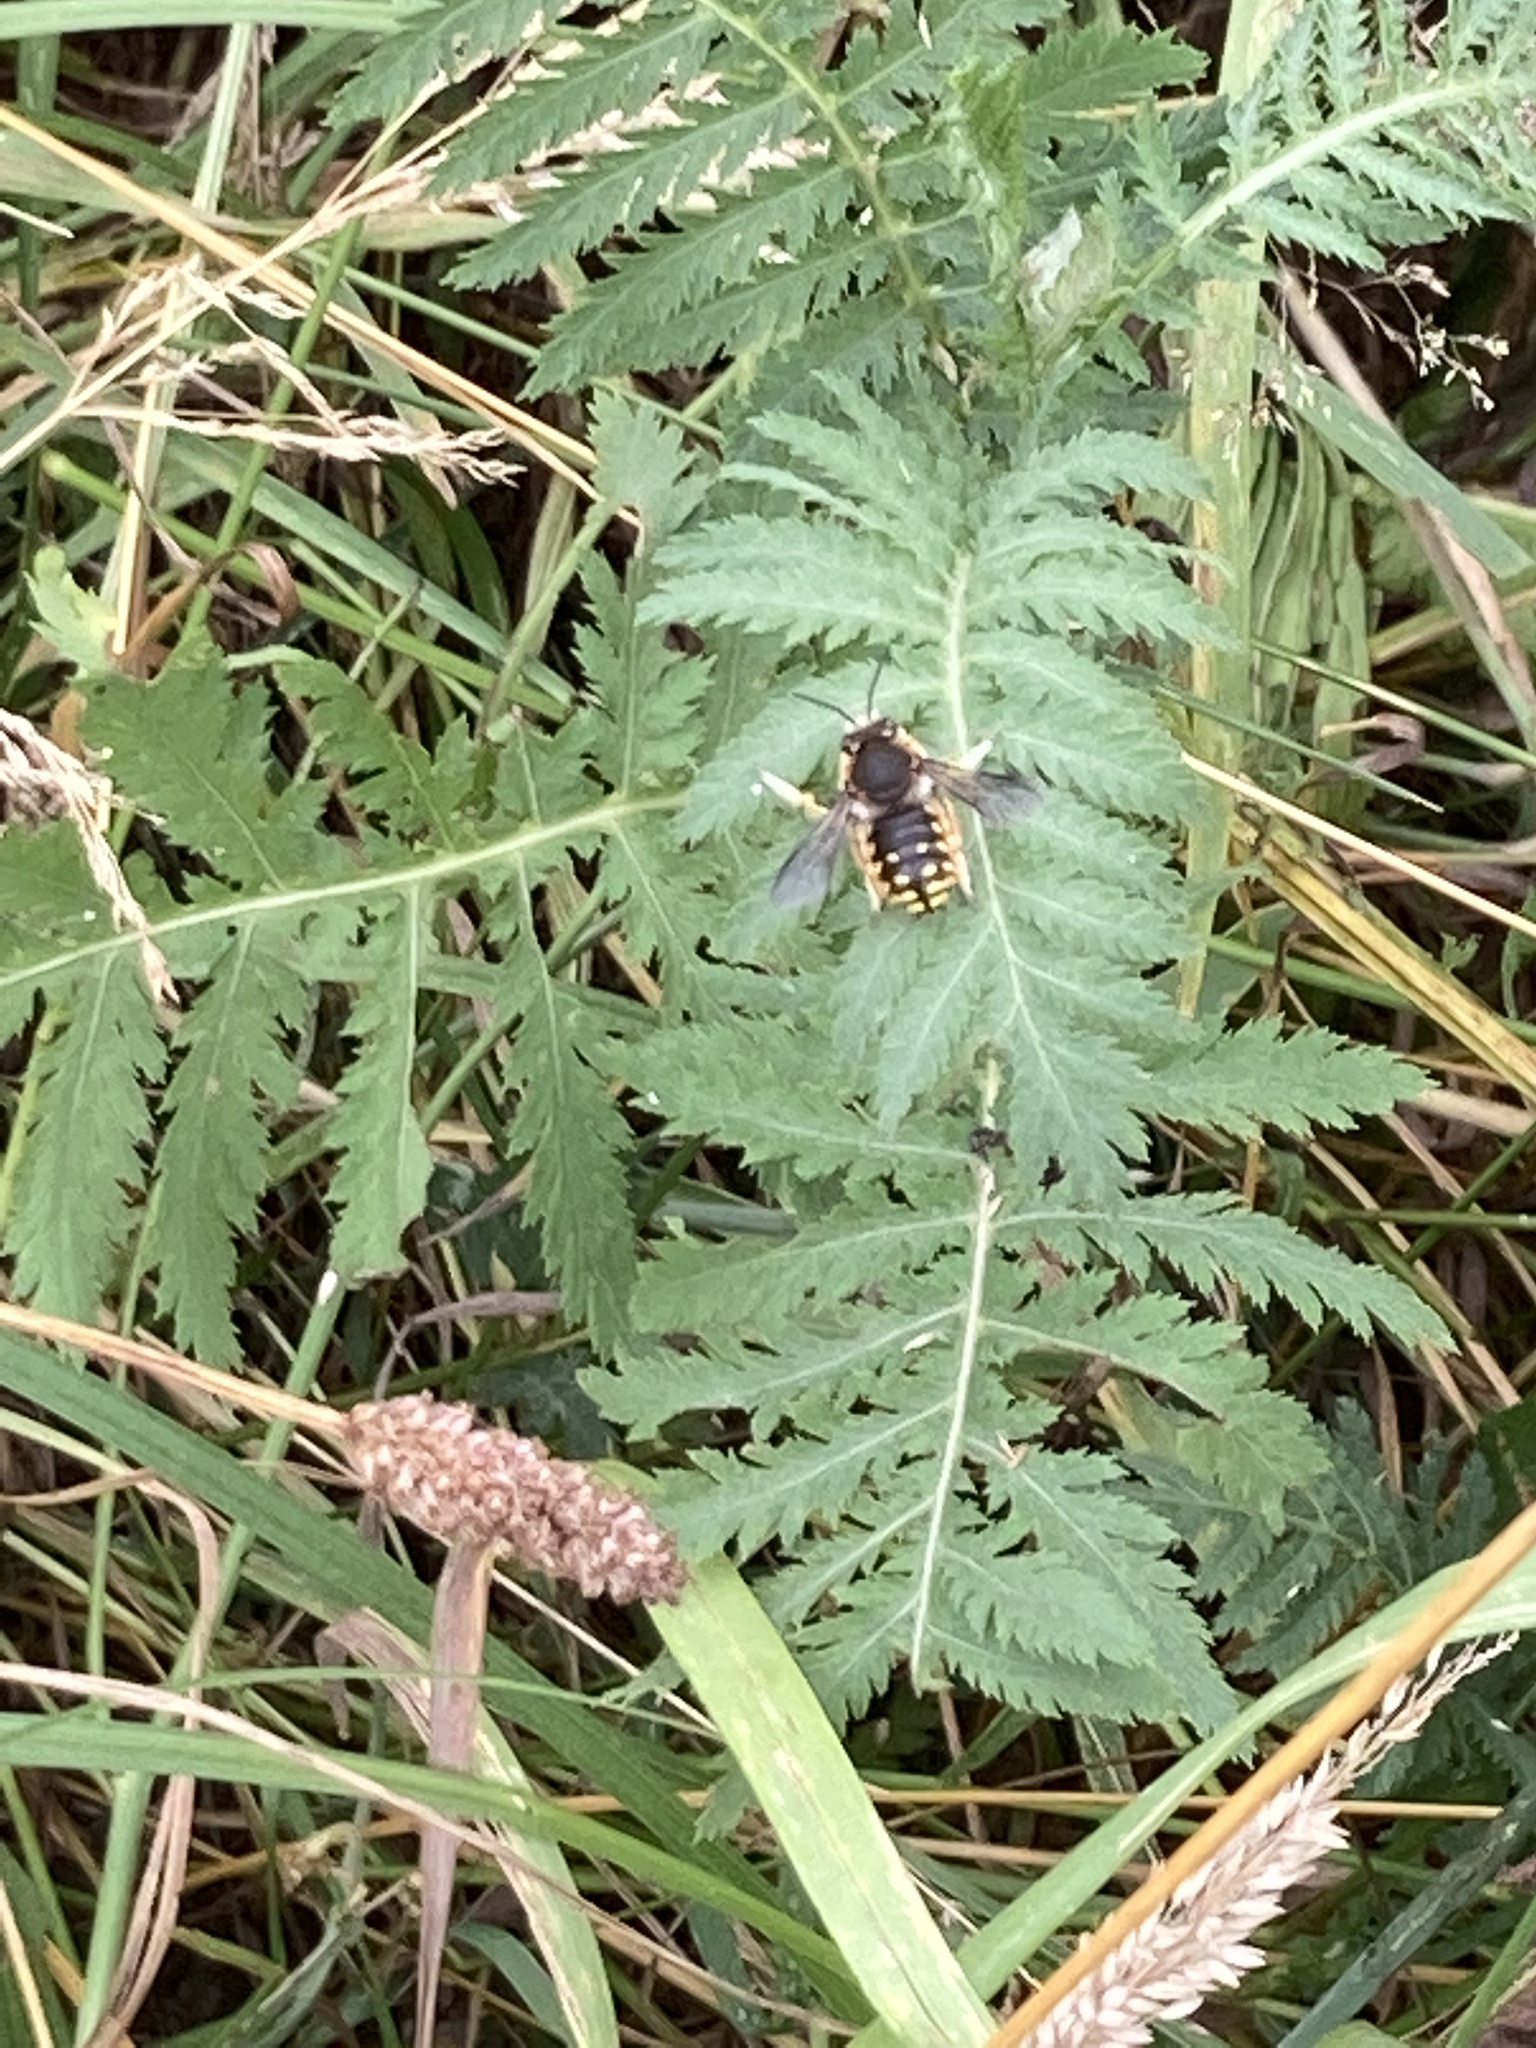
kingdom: Animalia
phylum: Arthropoda
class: Insecta
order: Hymenoptera
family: Megachilidae
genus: Anthidium
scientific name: Anthidium manicatum
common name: Wool carder bee
